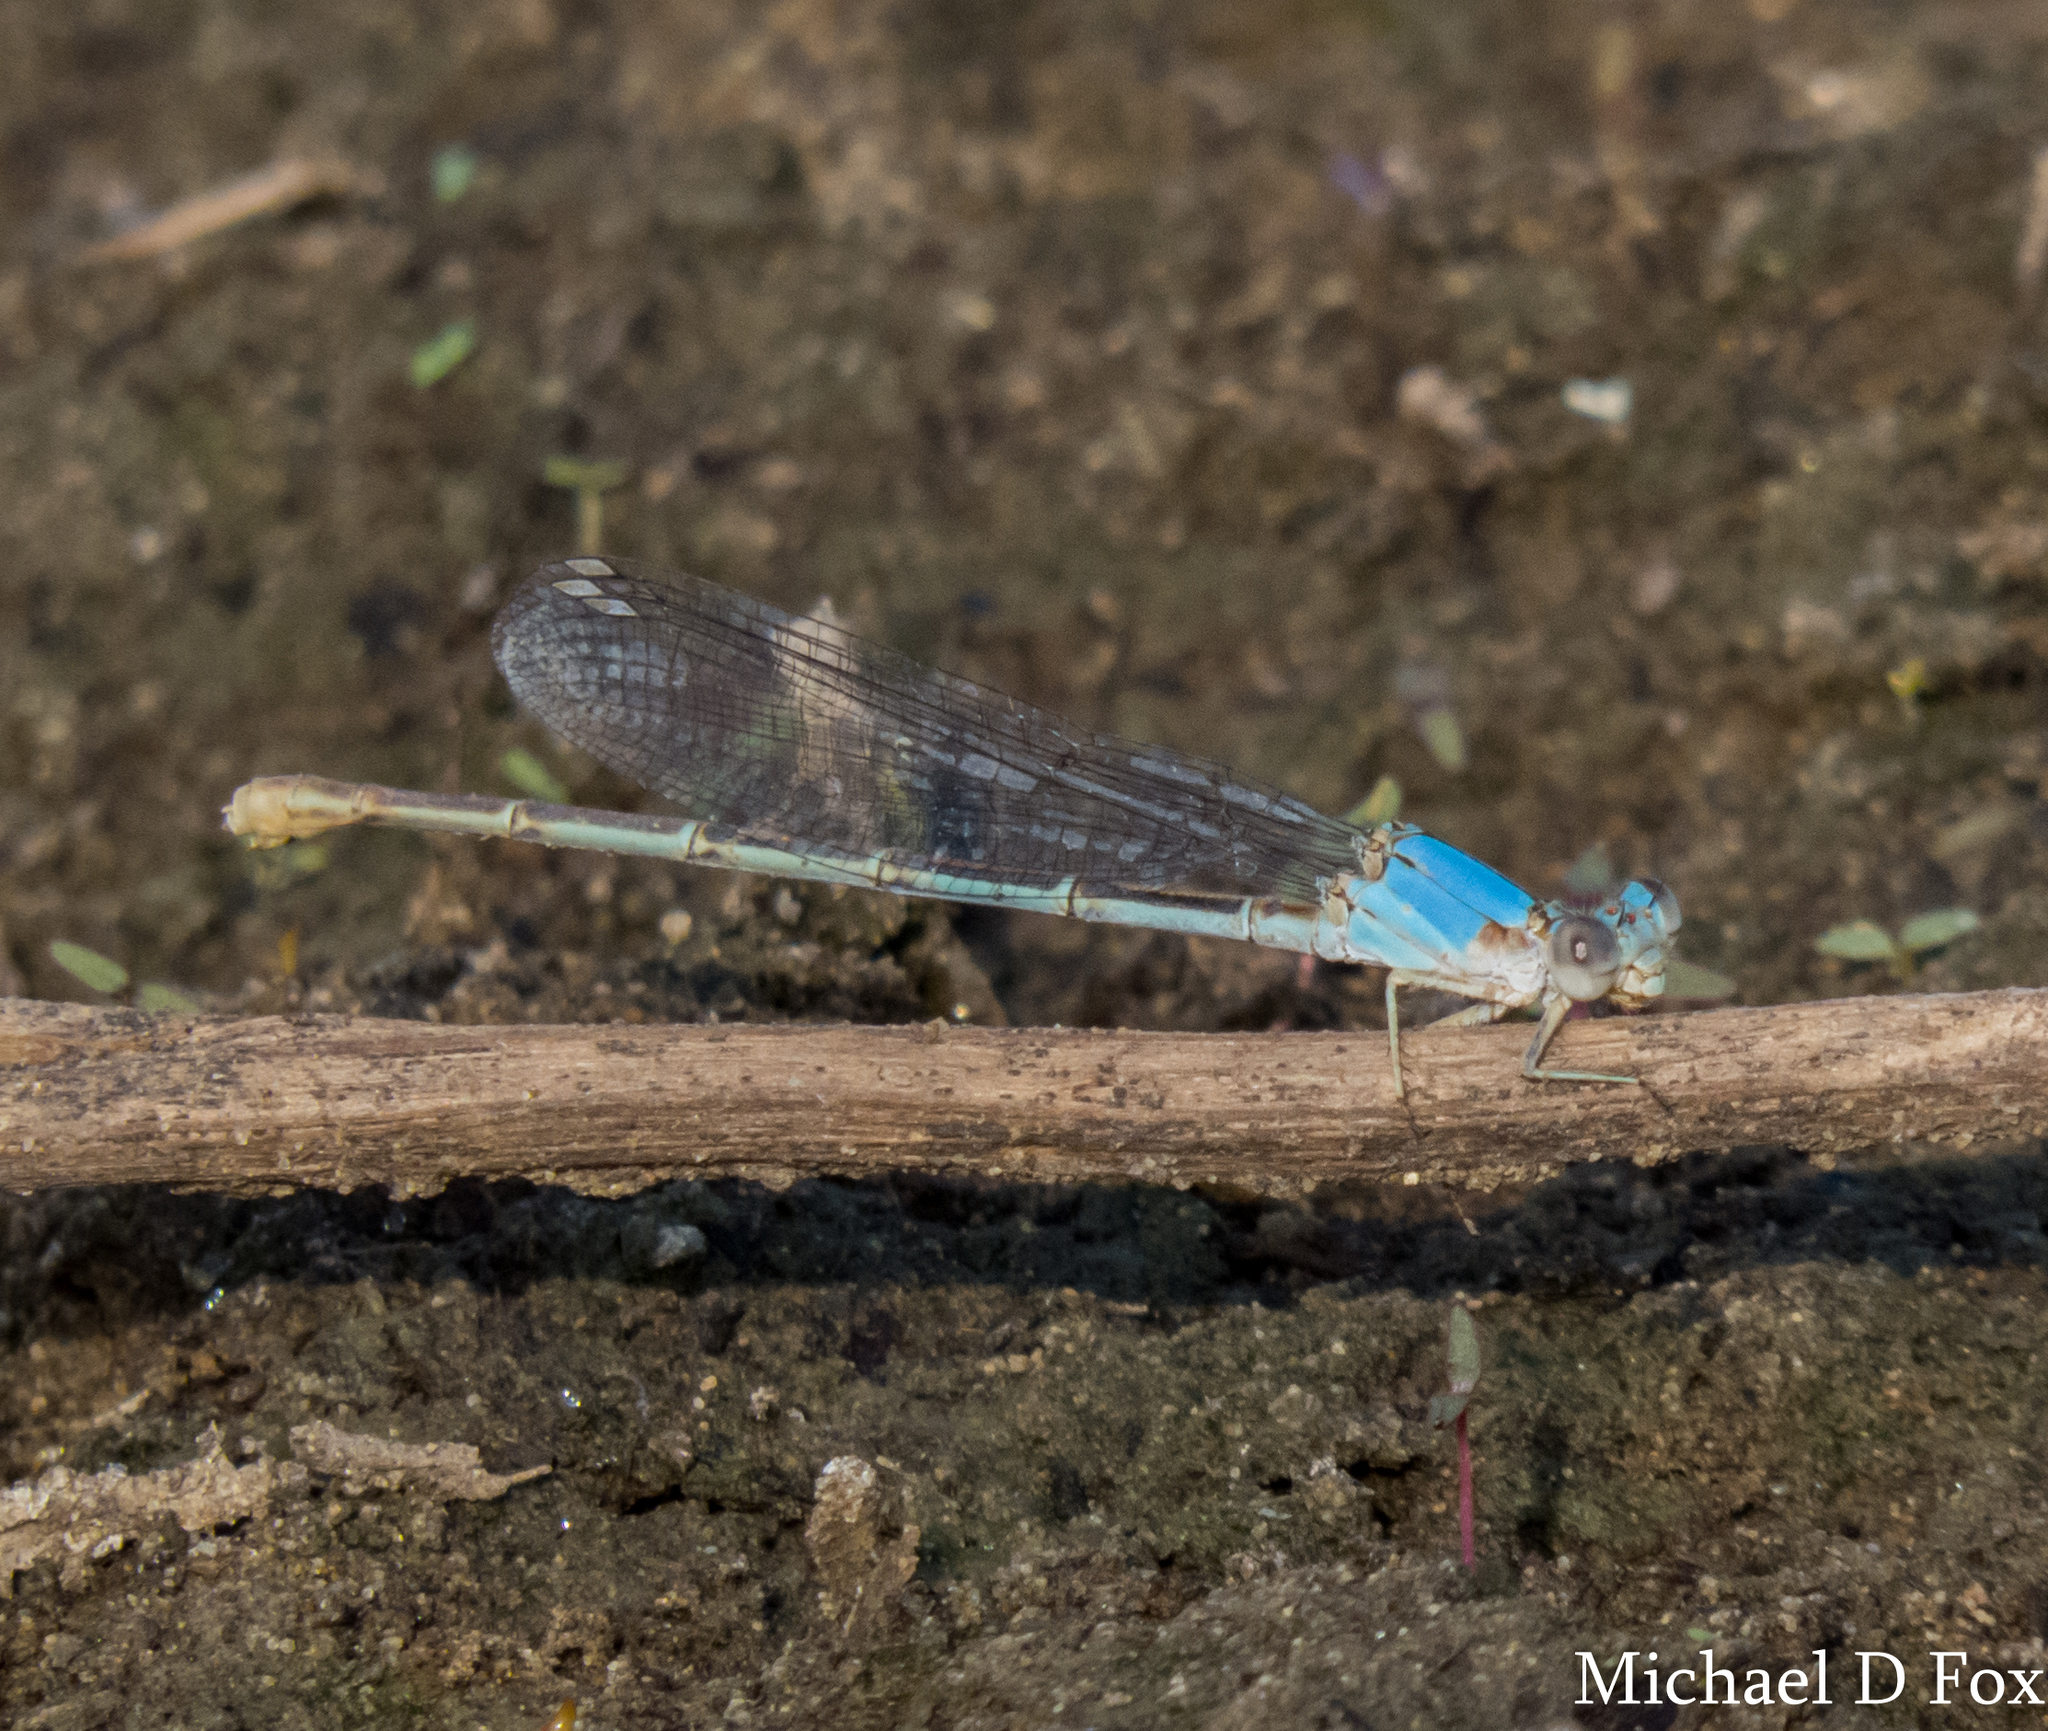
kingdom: Animalia
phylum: Arthropoda
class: Insecta
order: Odonata
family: Coenagrionidae
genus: Argia
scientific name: Argia moesta
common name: Powdered dancer
